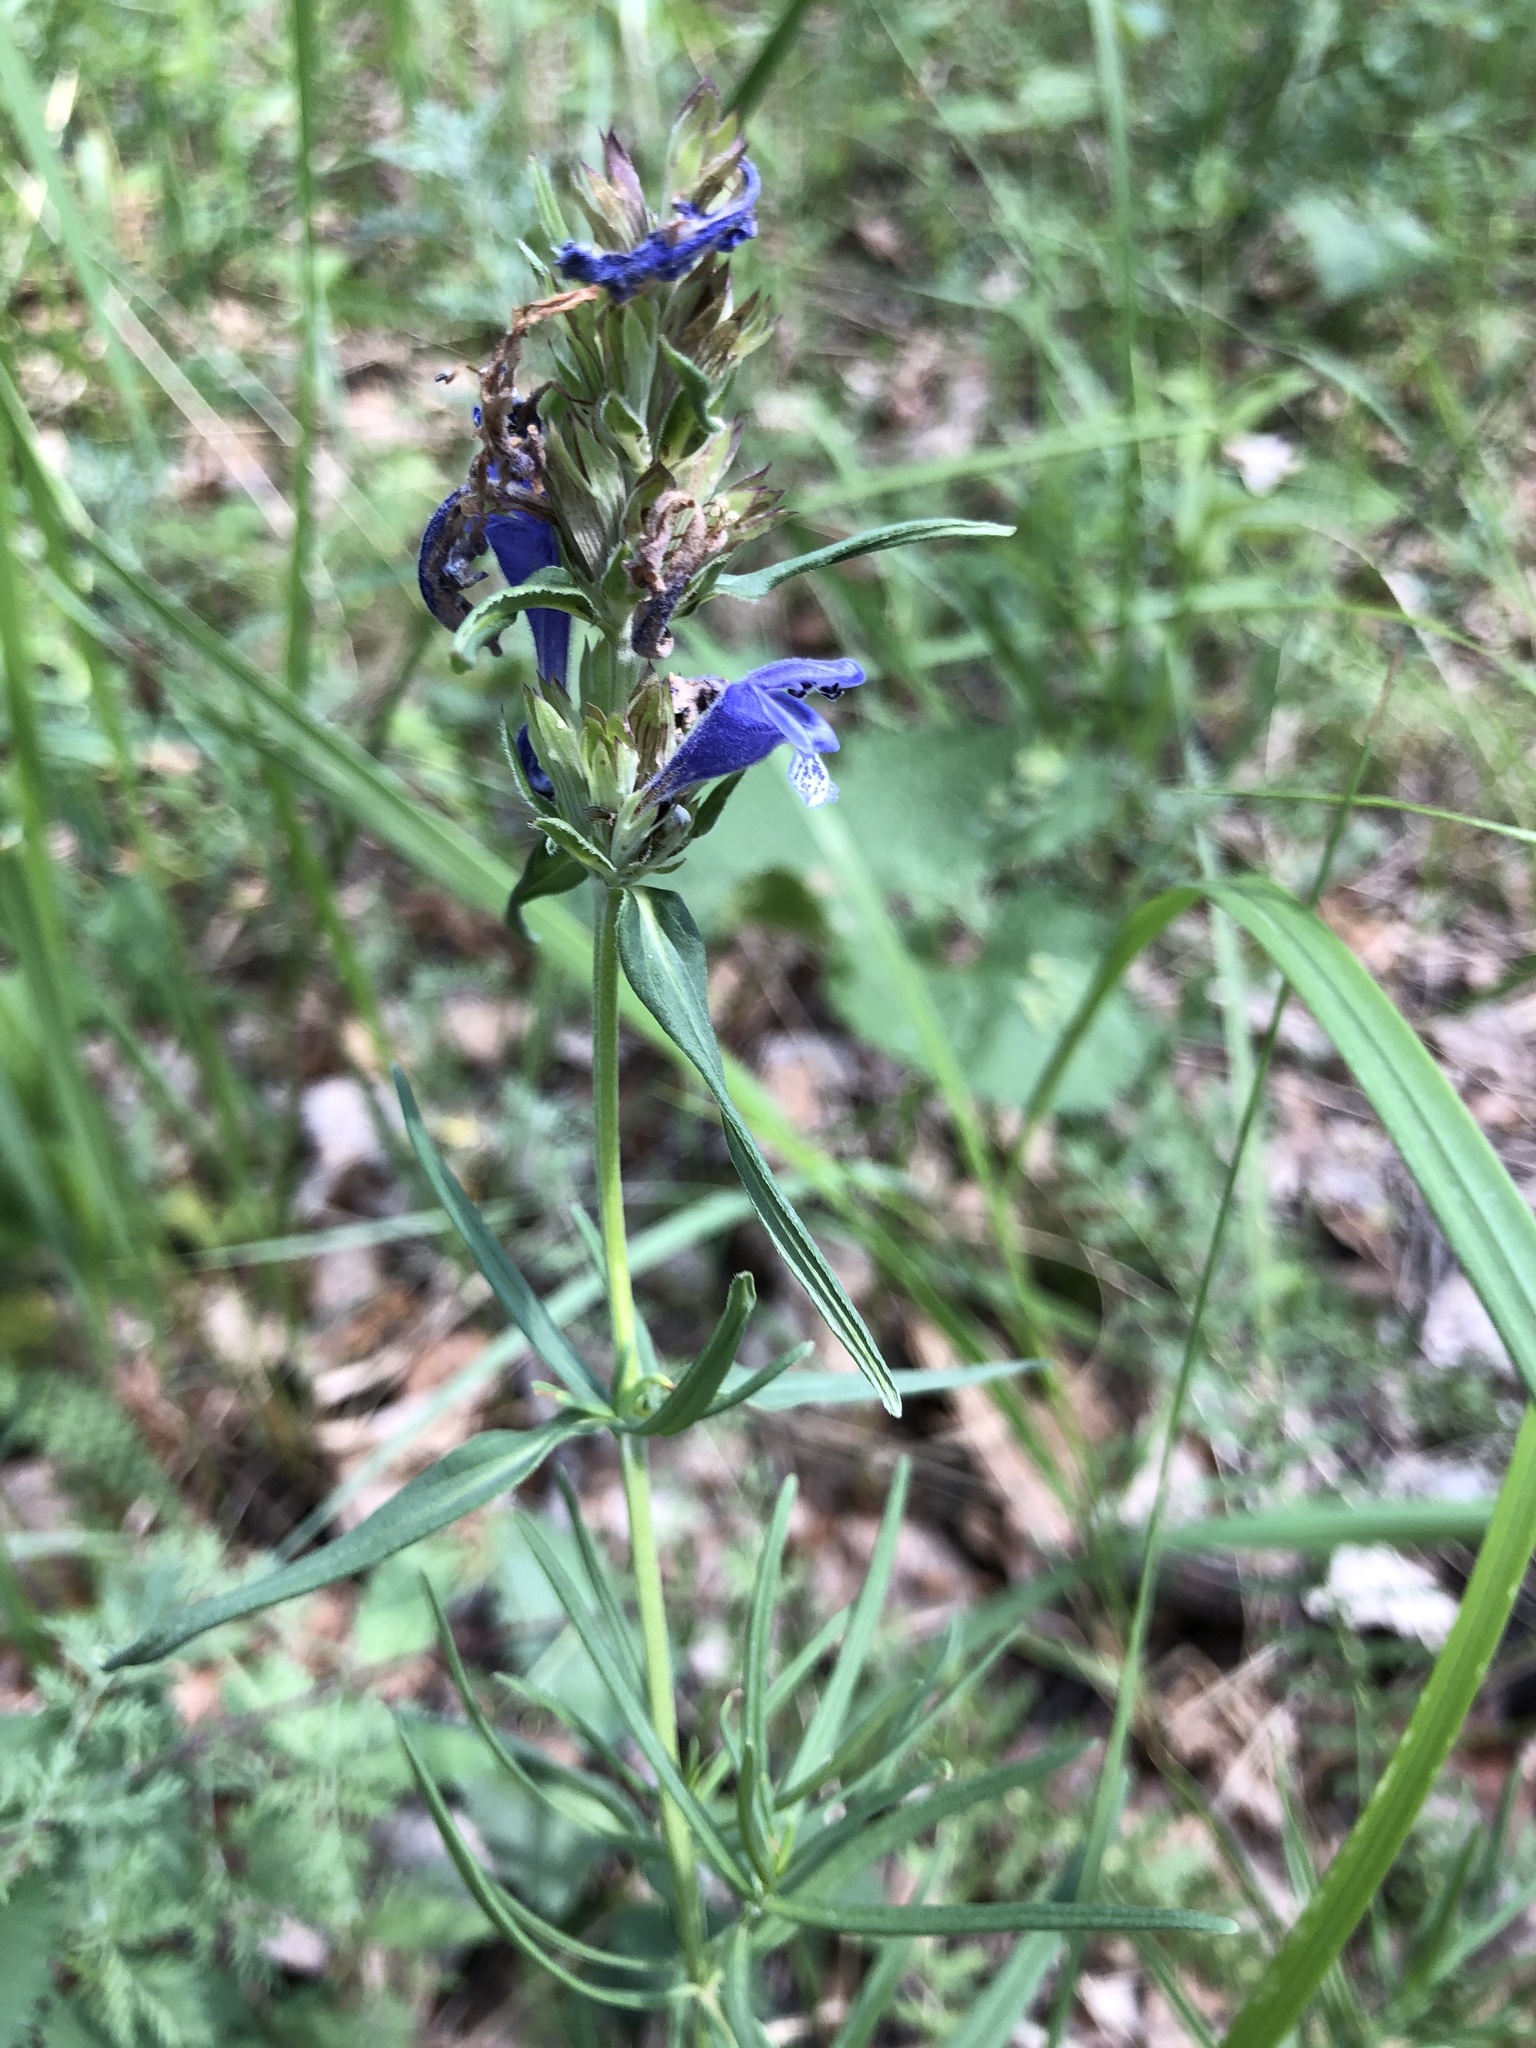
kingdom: Plantae
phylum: Tracheophyta
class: Magnoliopsida
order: Lamiales
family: Lamiaceae
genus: Dracocephalum
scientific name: Dracocephalum ruyschiana
